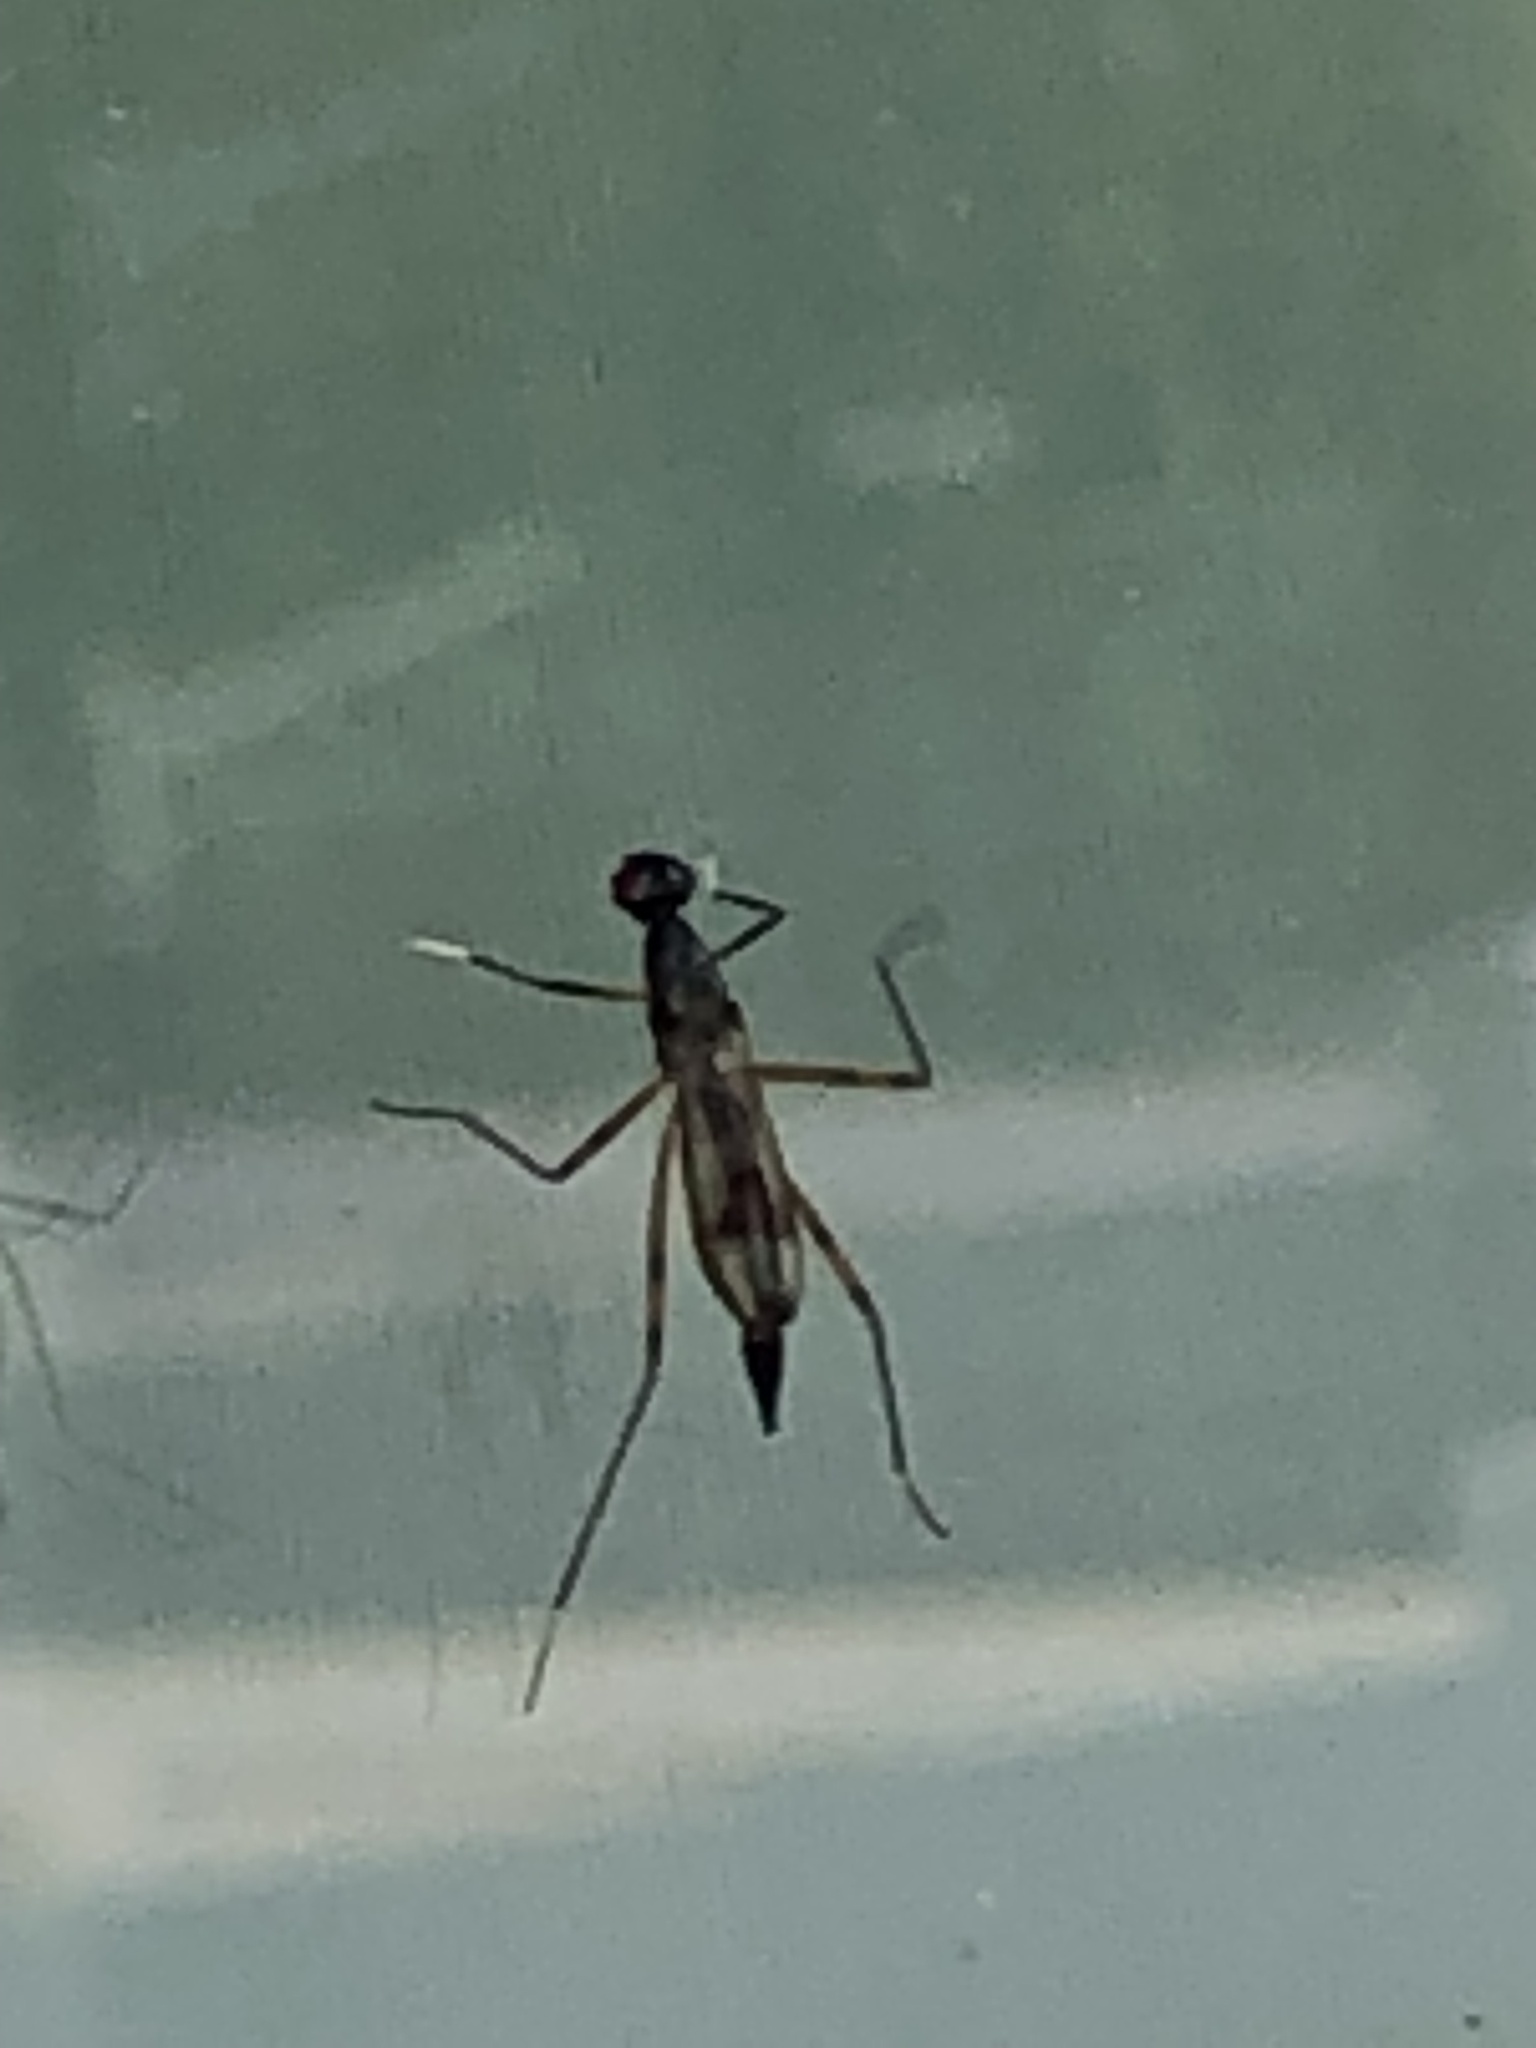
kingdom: Animalia
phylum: Arthropoda
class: Insecta
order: Diptera
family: Micropezidae
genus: Rainieria
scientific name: Rainieria antennaepes
